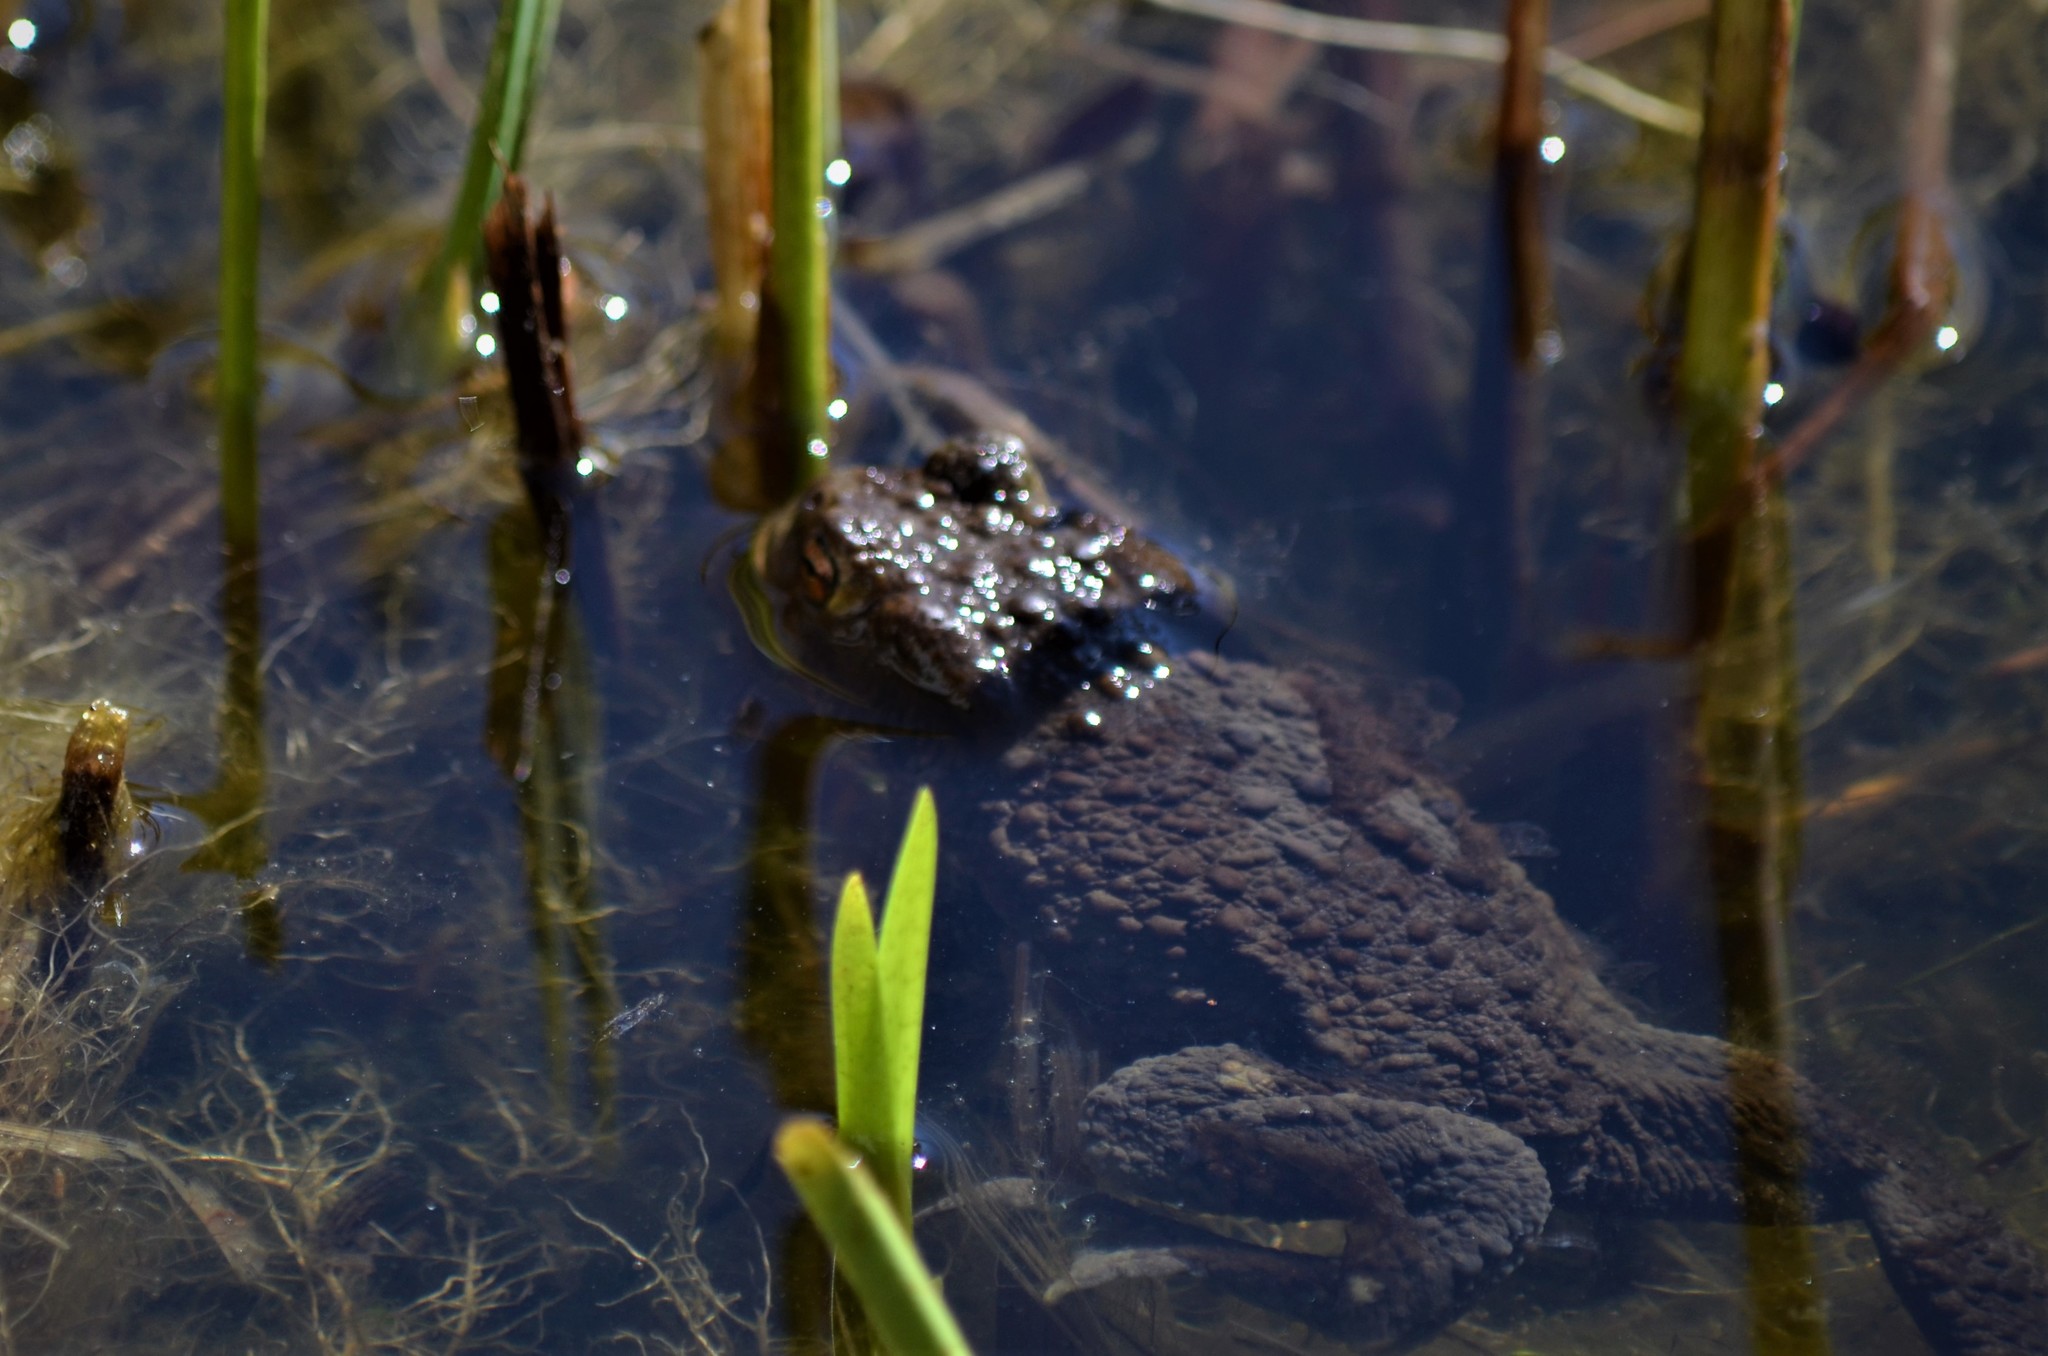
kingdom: Animalia
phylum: Chordata
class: Amphibia
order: Anura
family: Bufonidae
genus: Bufo
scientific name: Bufo bufo
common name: Common toad
